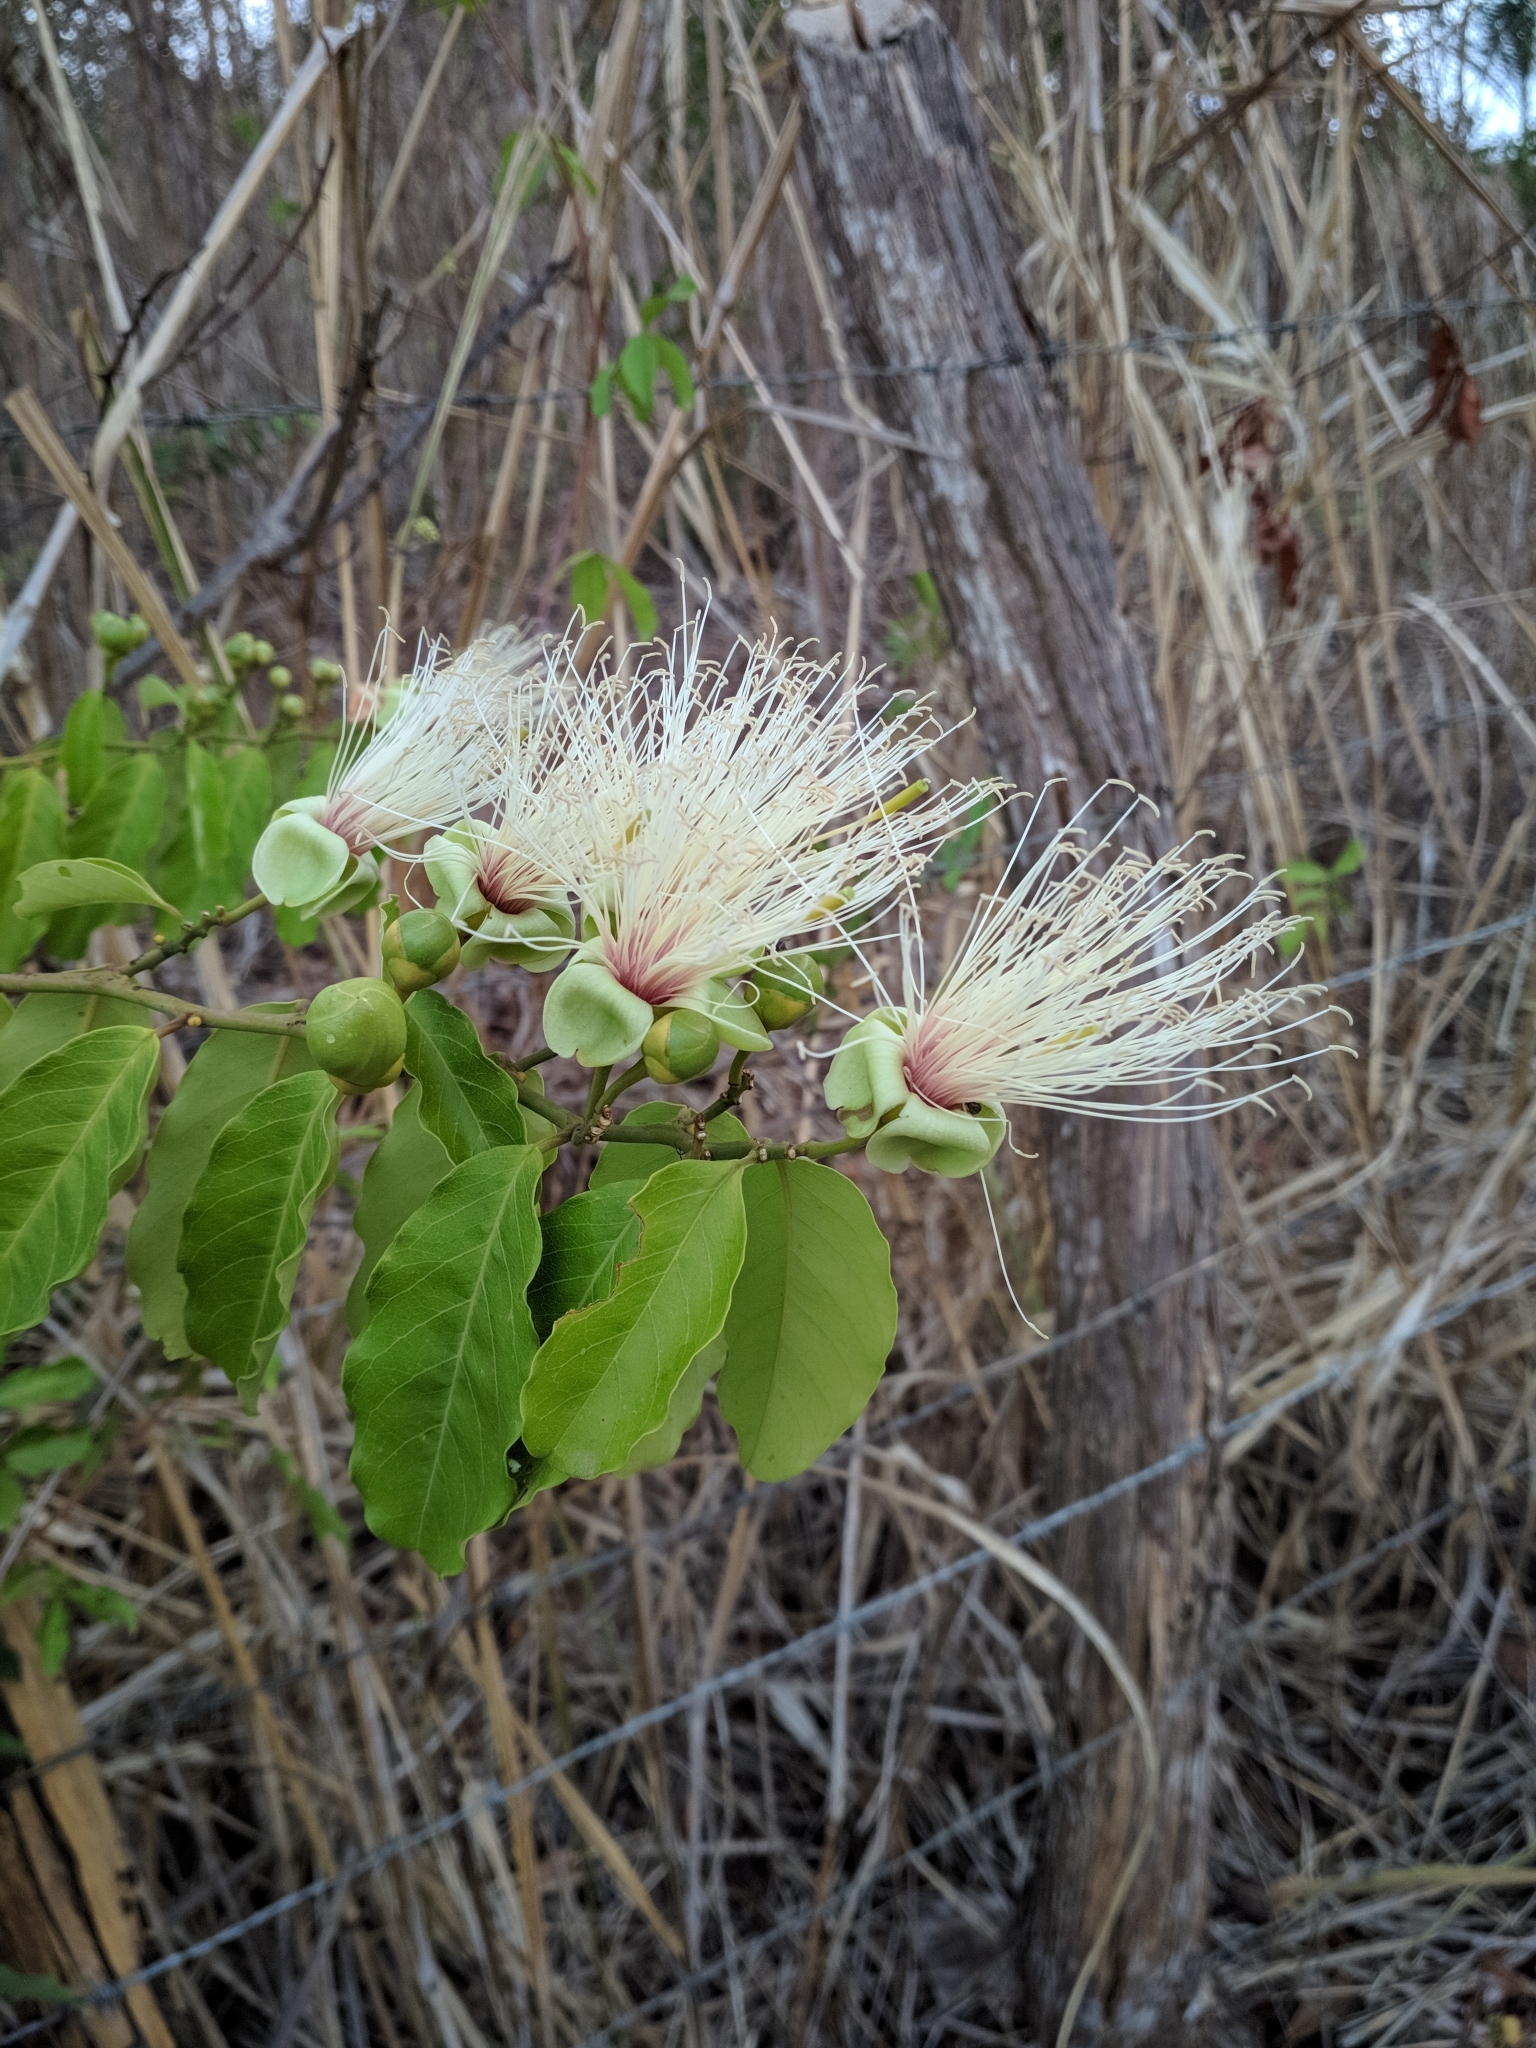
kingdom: Plantae
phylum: Tracheophyta
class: Magnoliopsida
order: Brassicales
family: Capparaceae
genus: Cynophalla
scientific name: Cynophalla hastata
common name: Broadleaf cape
